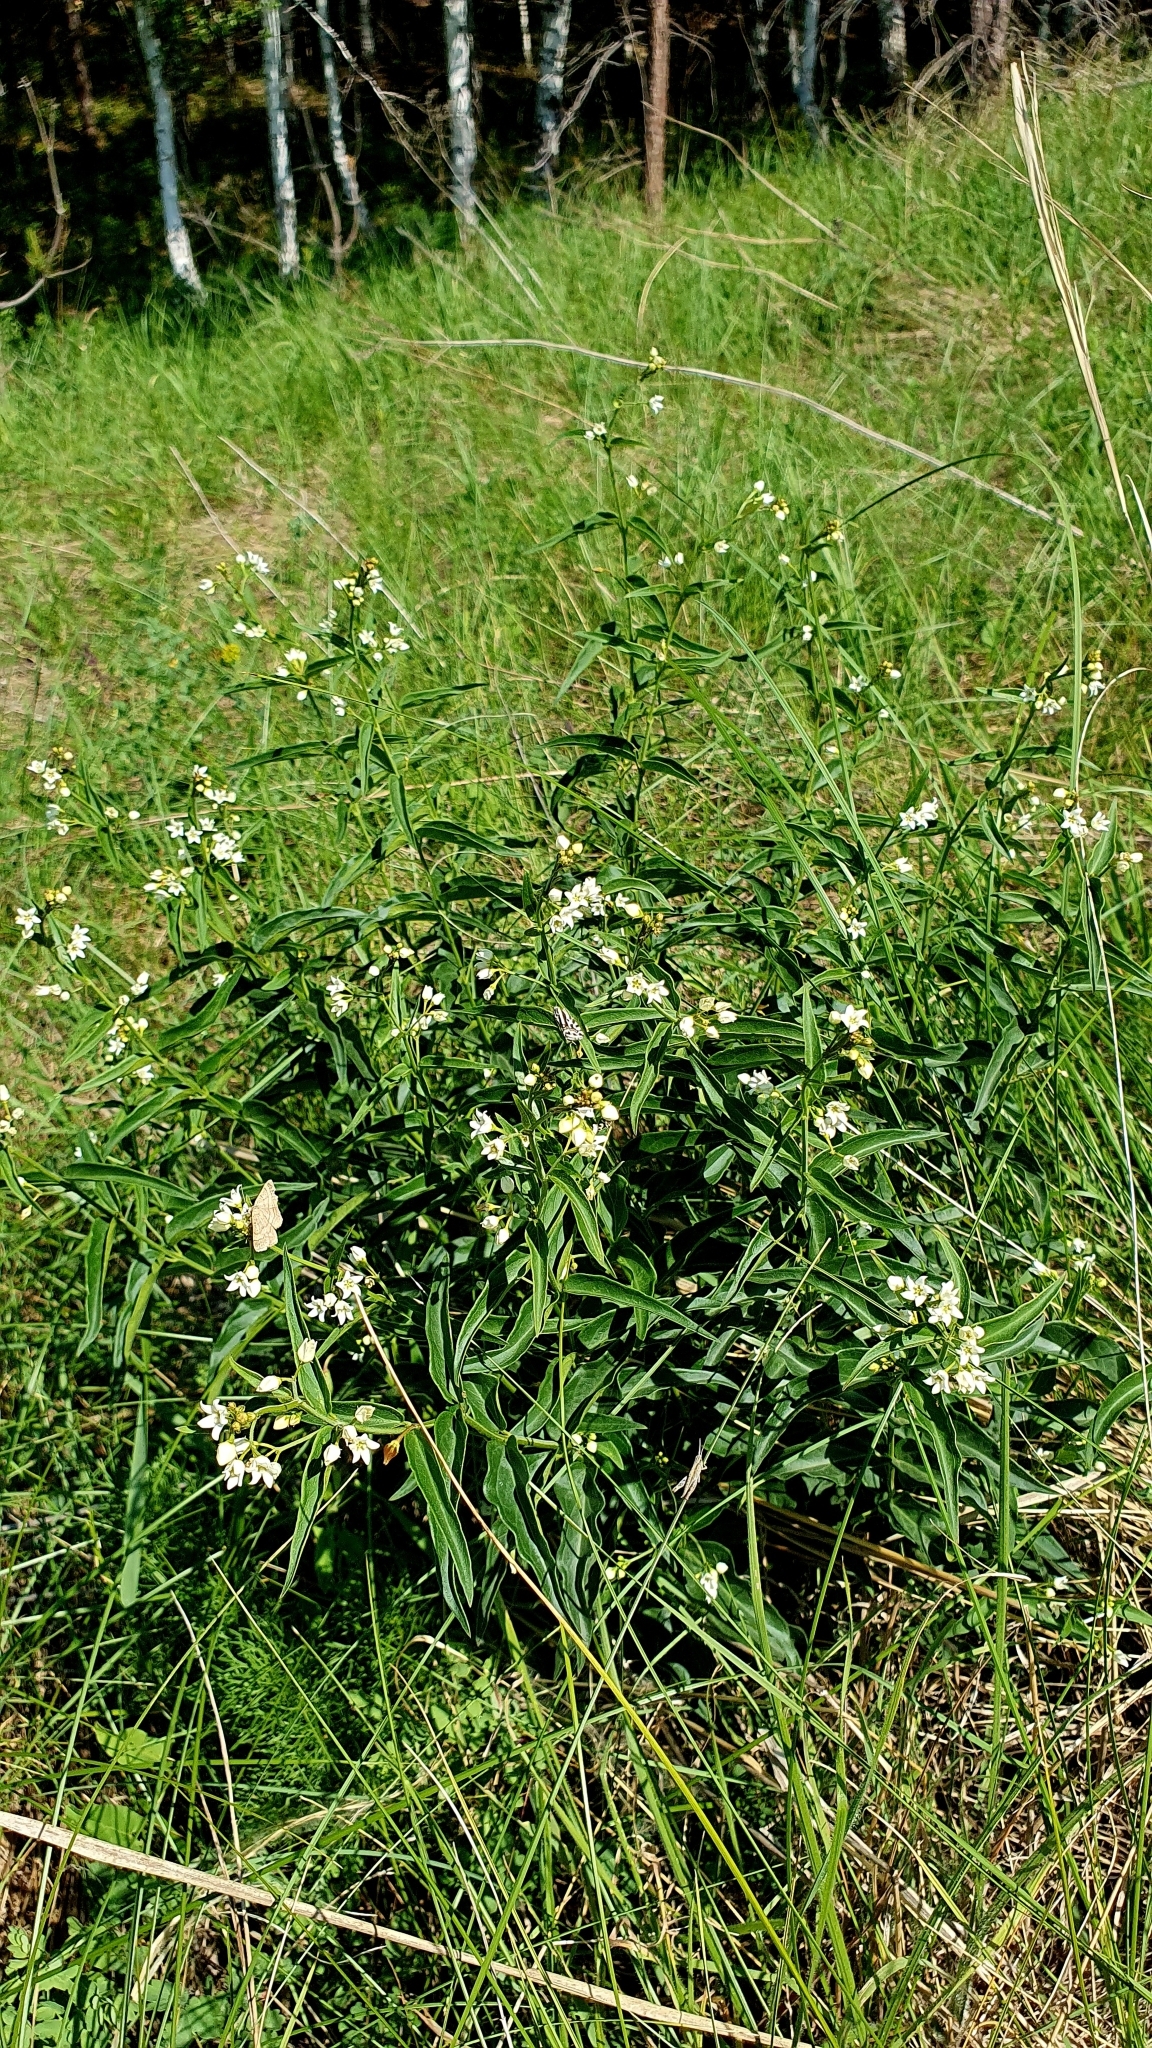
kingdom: Plantae
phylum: Tracheophyta
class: Magnoliopsida
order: Gentianales
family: Apocynaceae
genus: Vincetoxicum
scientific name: Vincetoxicum hirundinaria
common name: White swallowwort
